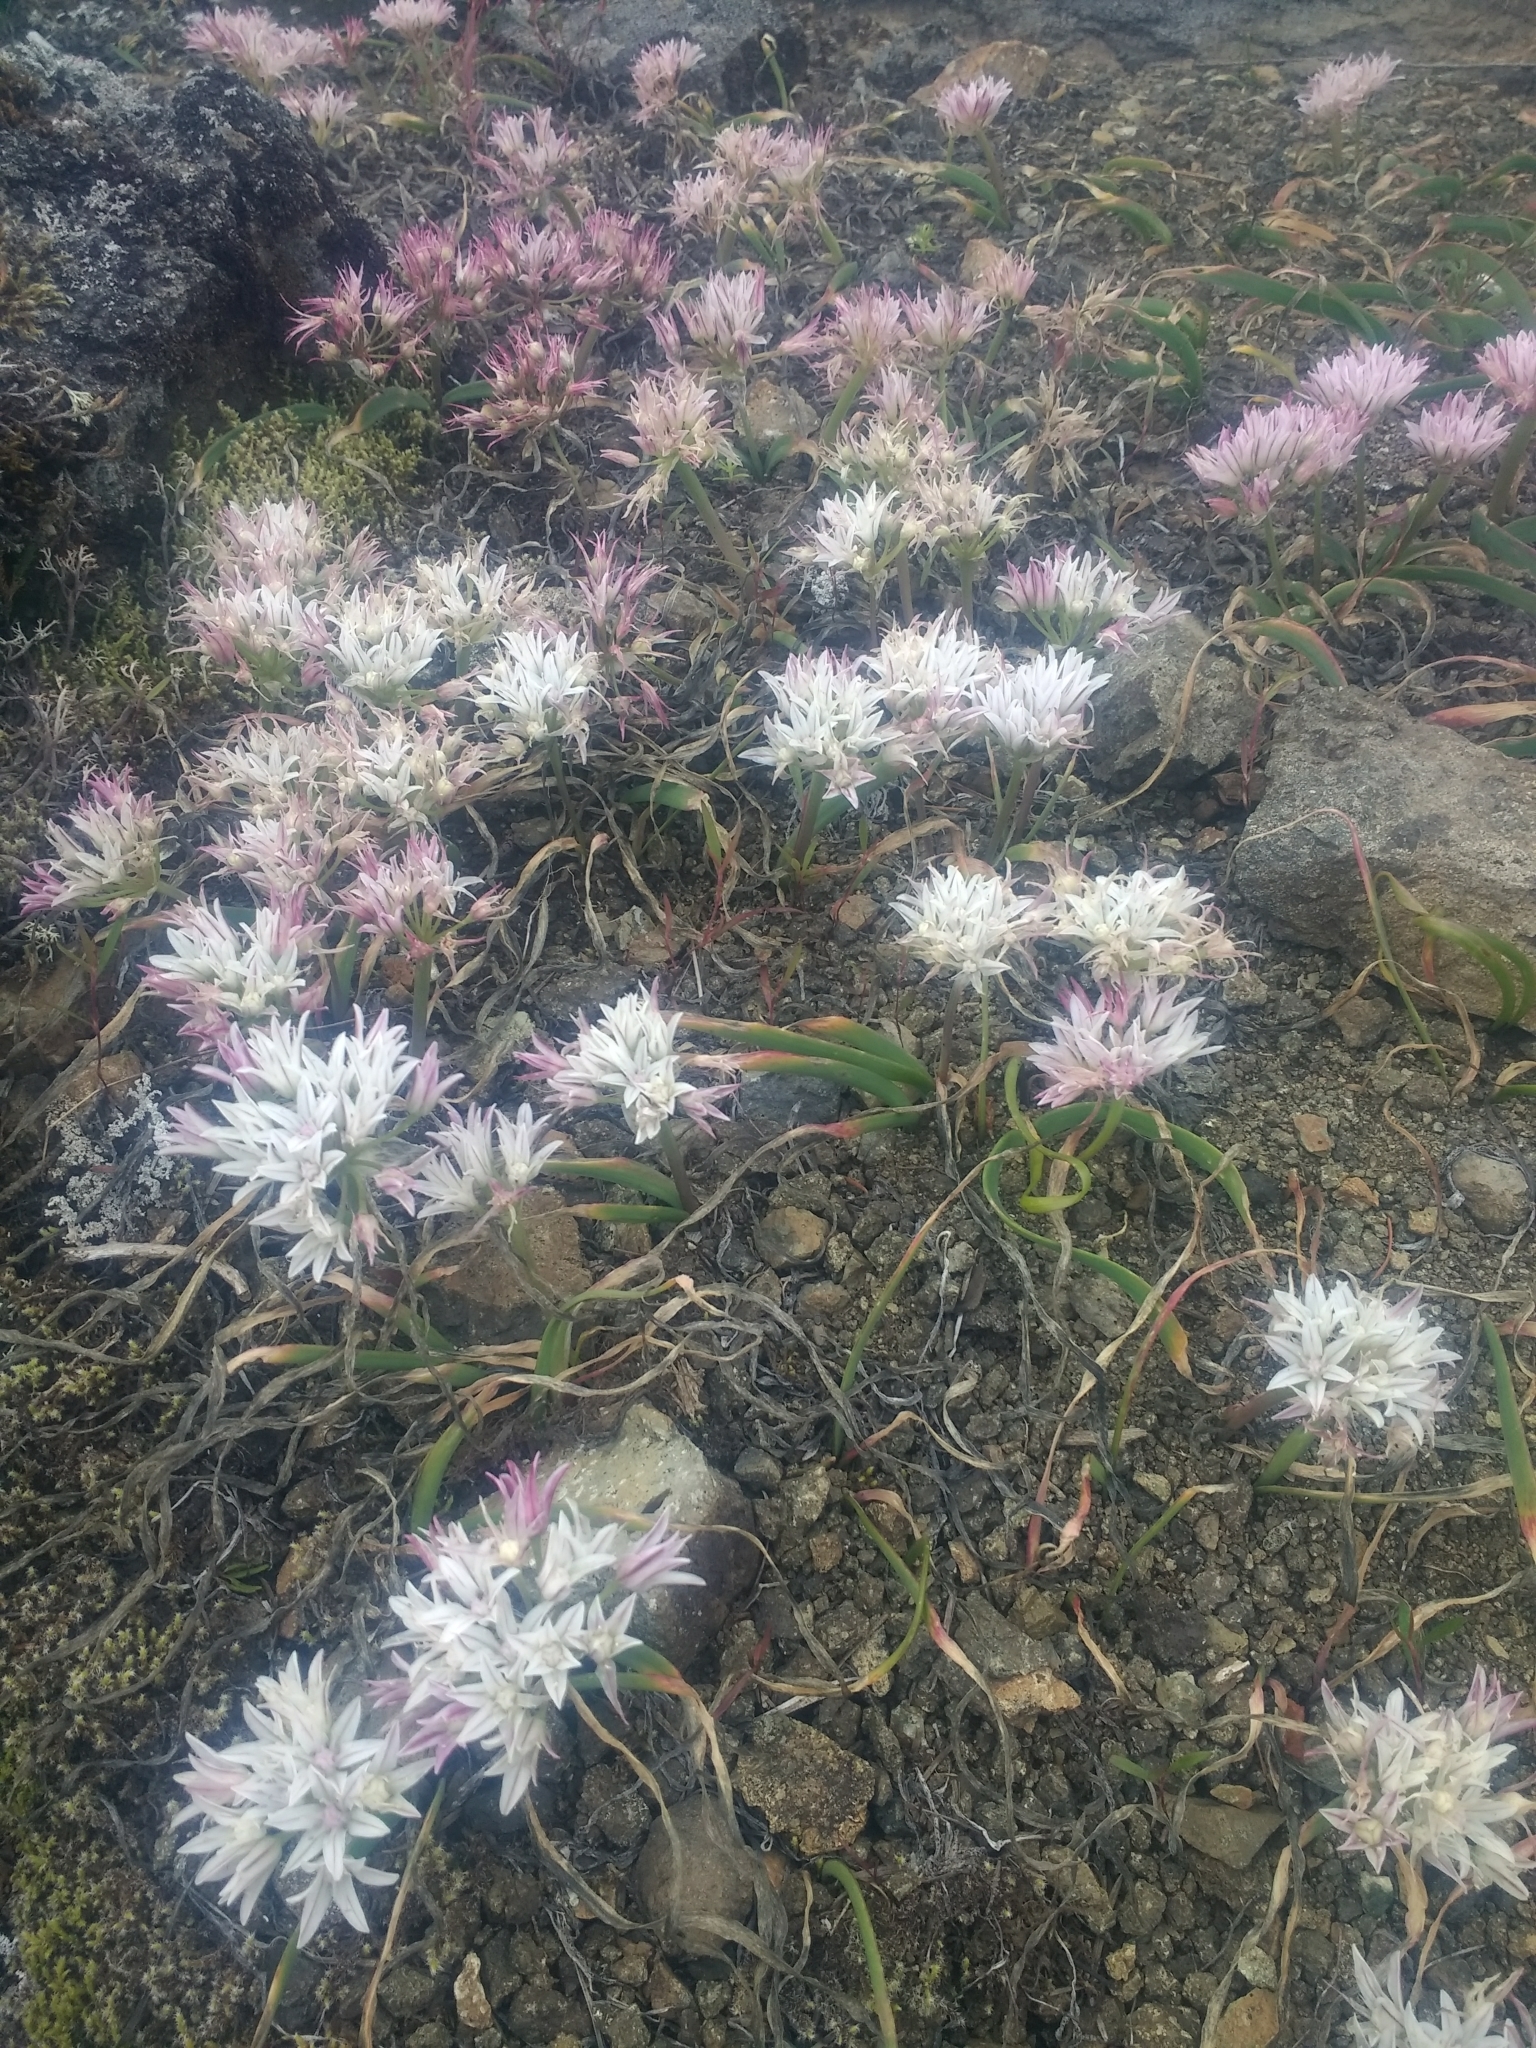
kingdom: Plantae
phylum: Tracheophyta
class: Liliopsida
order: Asparagales
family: Amaryllidaceae
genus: Allium
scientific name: Allium crenulatum
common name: Olympic onion
